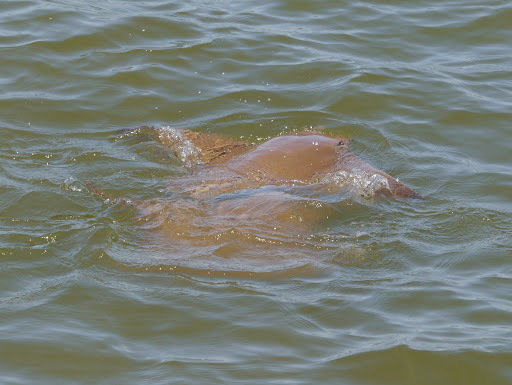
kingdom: Animalia
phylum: Chordata
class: Elasmobranchii
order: Myliobatiformes
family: Myliobatidae
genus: Rhinoptera
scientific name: Rhinoptera bonasus
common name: Cownose ray
